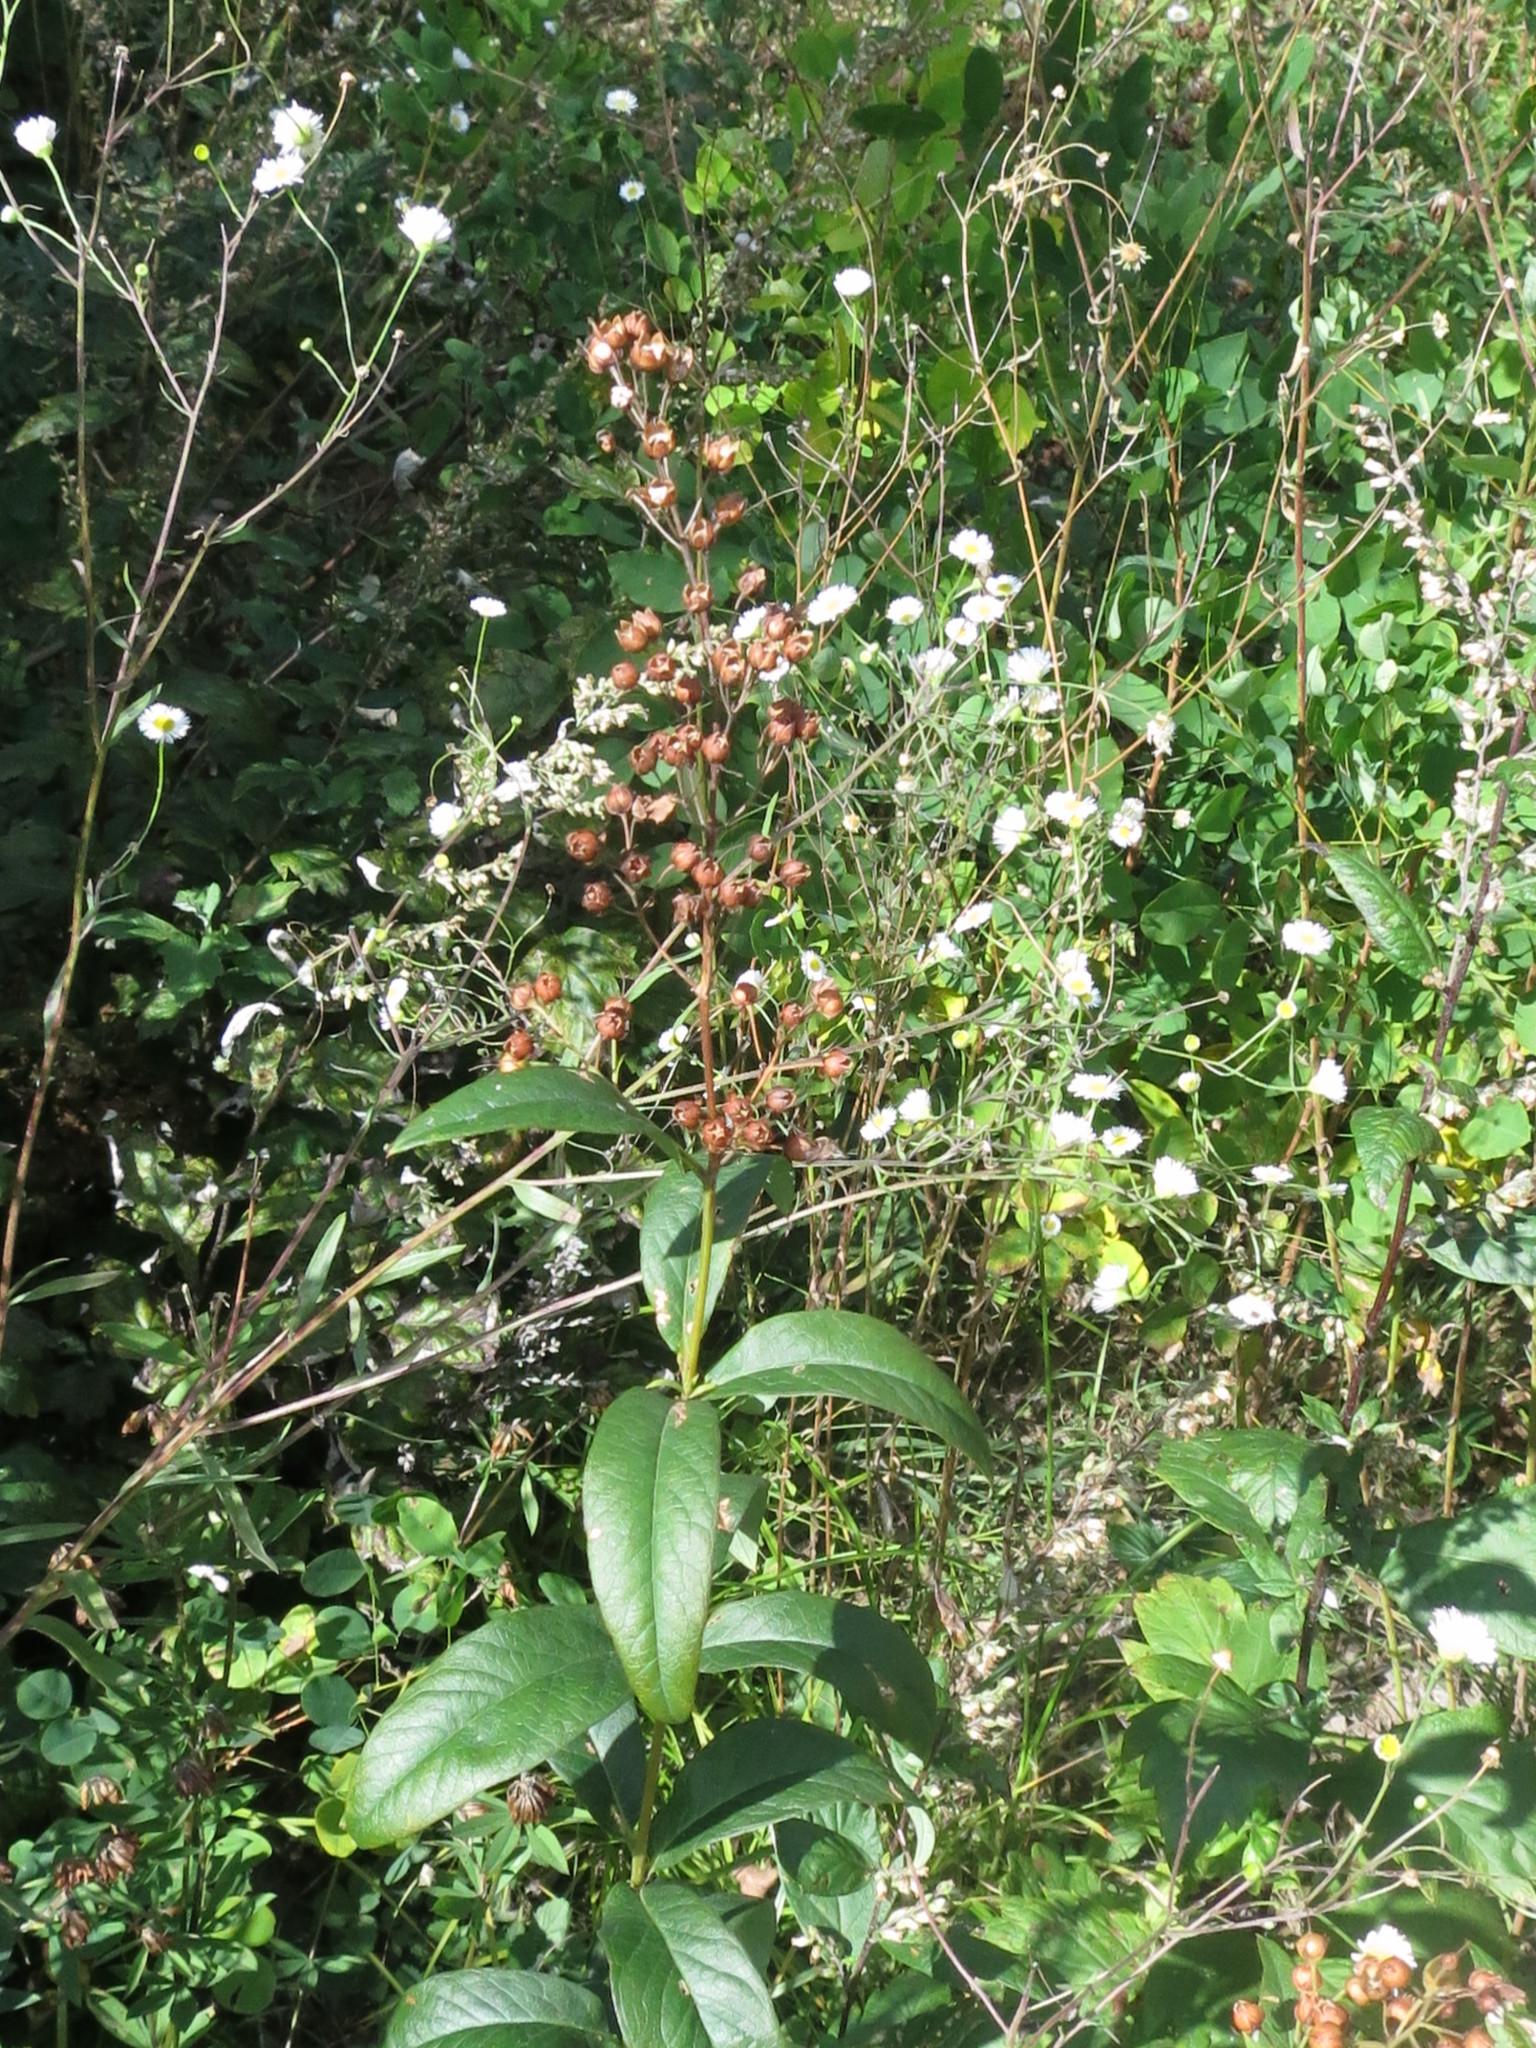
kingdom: Plantae
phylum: Tracheophyta
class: Magnoliopsida
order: Ericales
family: Primulaceae
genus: Lysimachia
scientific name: Lysimachia davurica
